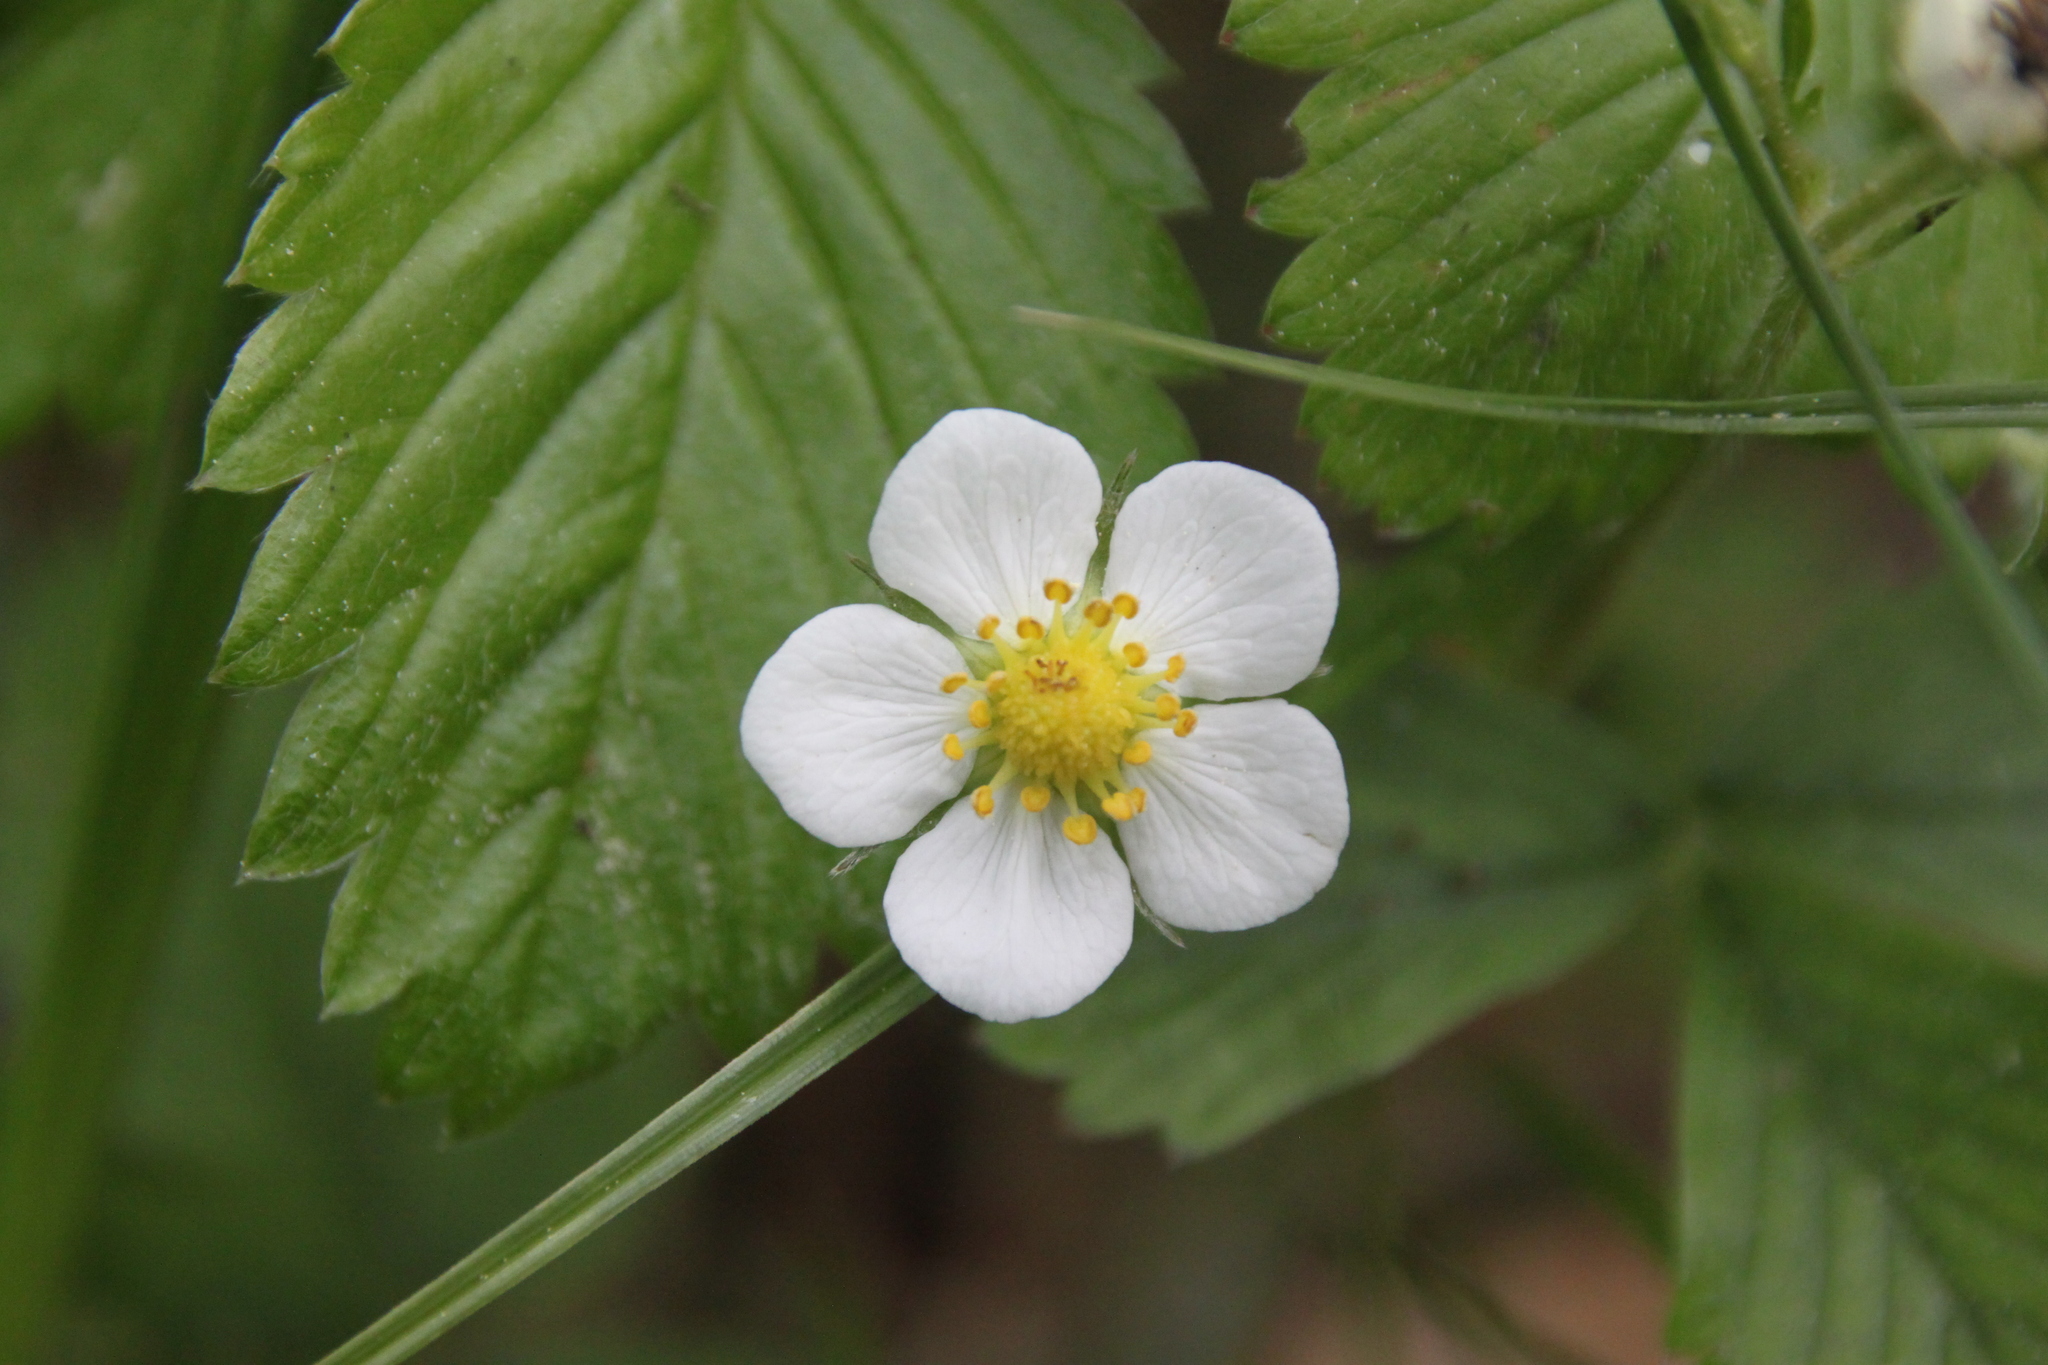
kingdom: Plantae
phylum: Tracheophyta
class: Magnoliopsida
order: Rosales
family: Rosaceae
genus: Fragaria
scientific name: Fragaria vesca
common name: Wild strawberry
